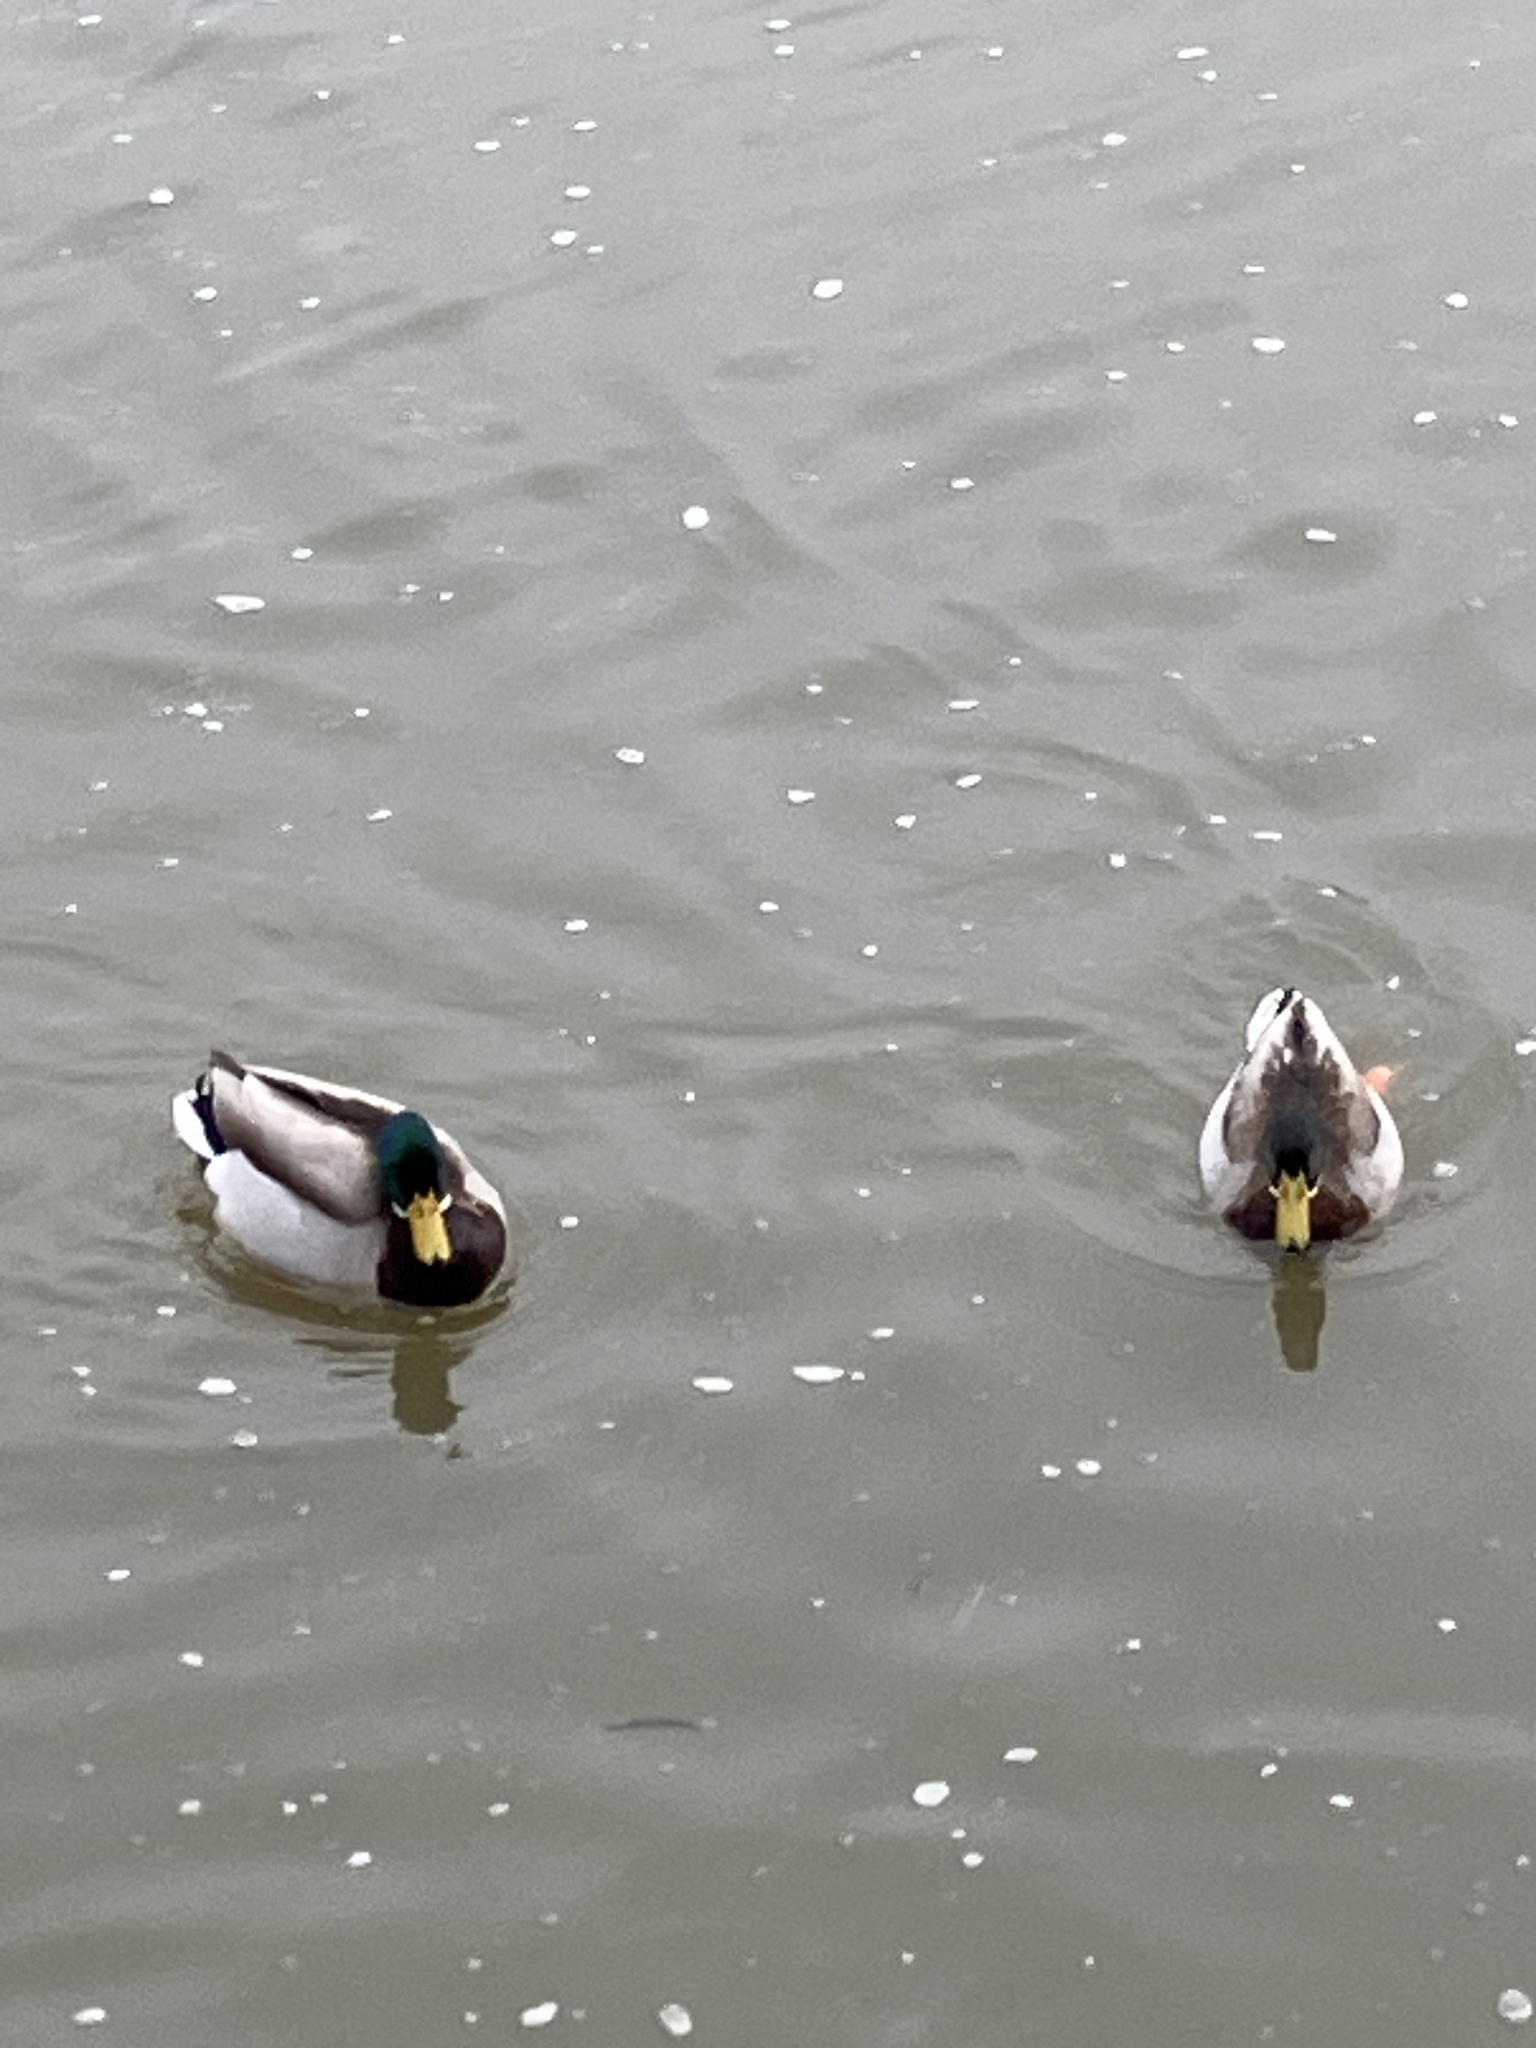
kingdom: Animalia
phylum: Chordata
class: Aves
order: Anseriformes
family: Anatidae
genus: Anas
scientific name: Anas platyrhynchos
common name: Mallard
